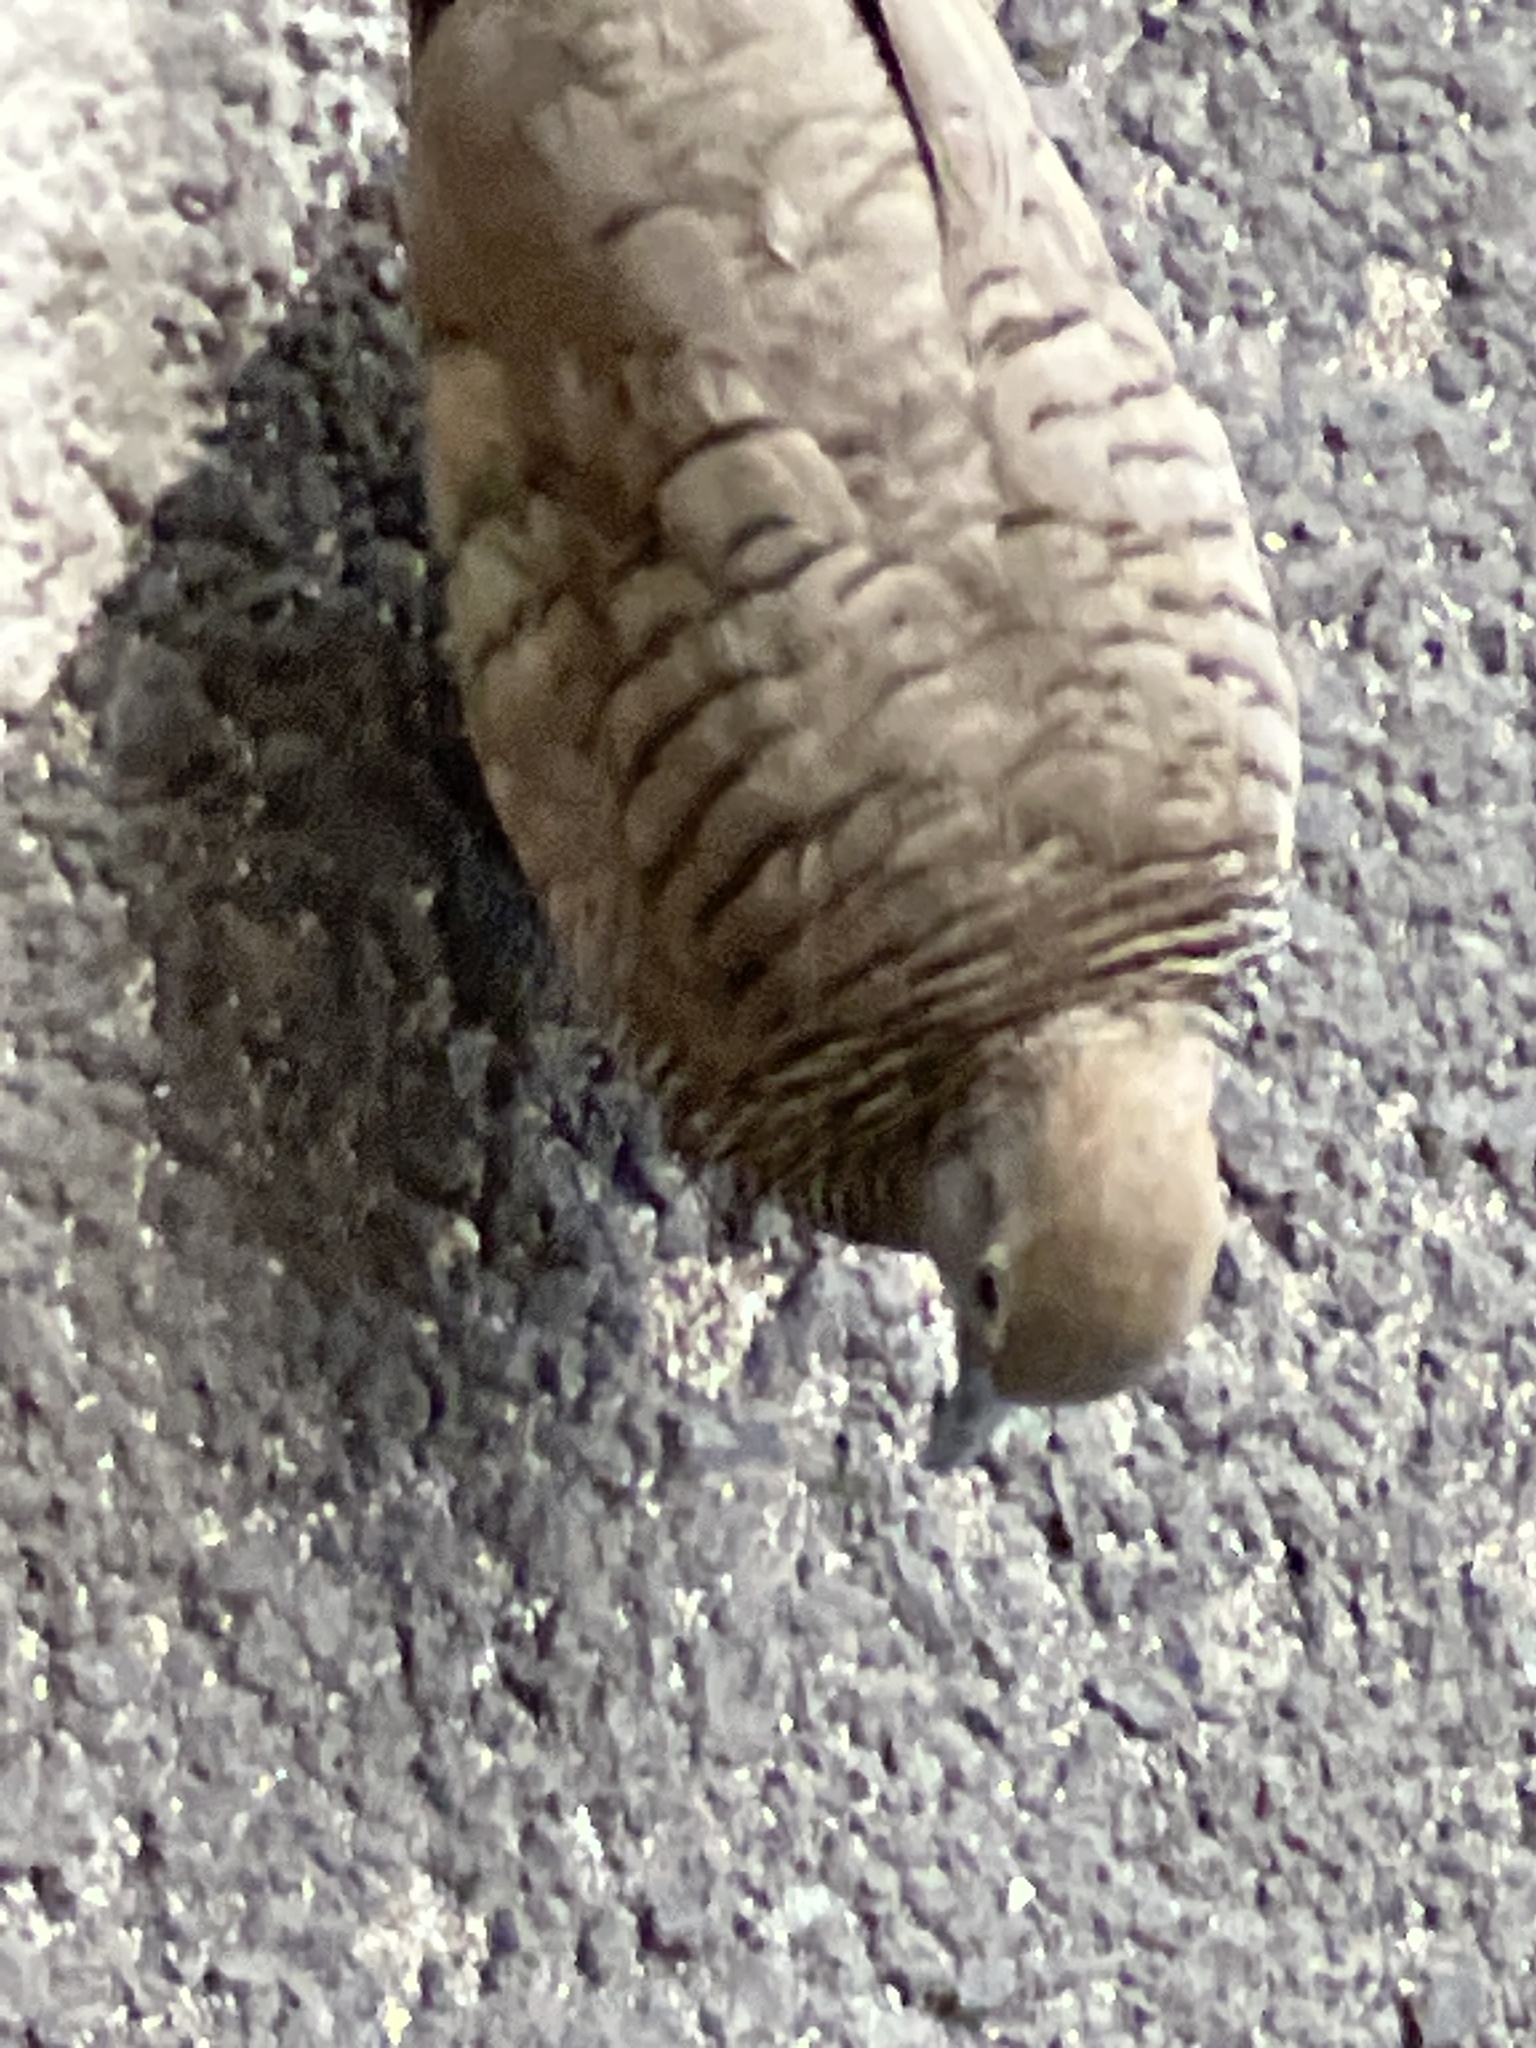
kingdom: Animalia
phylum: Chordata
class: Aves
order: Columbiformes
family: Columbidae
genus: Geopelia
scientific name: Geopelia striata
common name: Zebra dove
